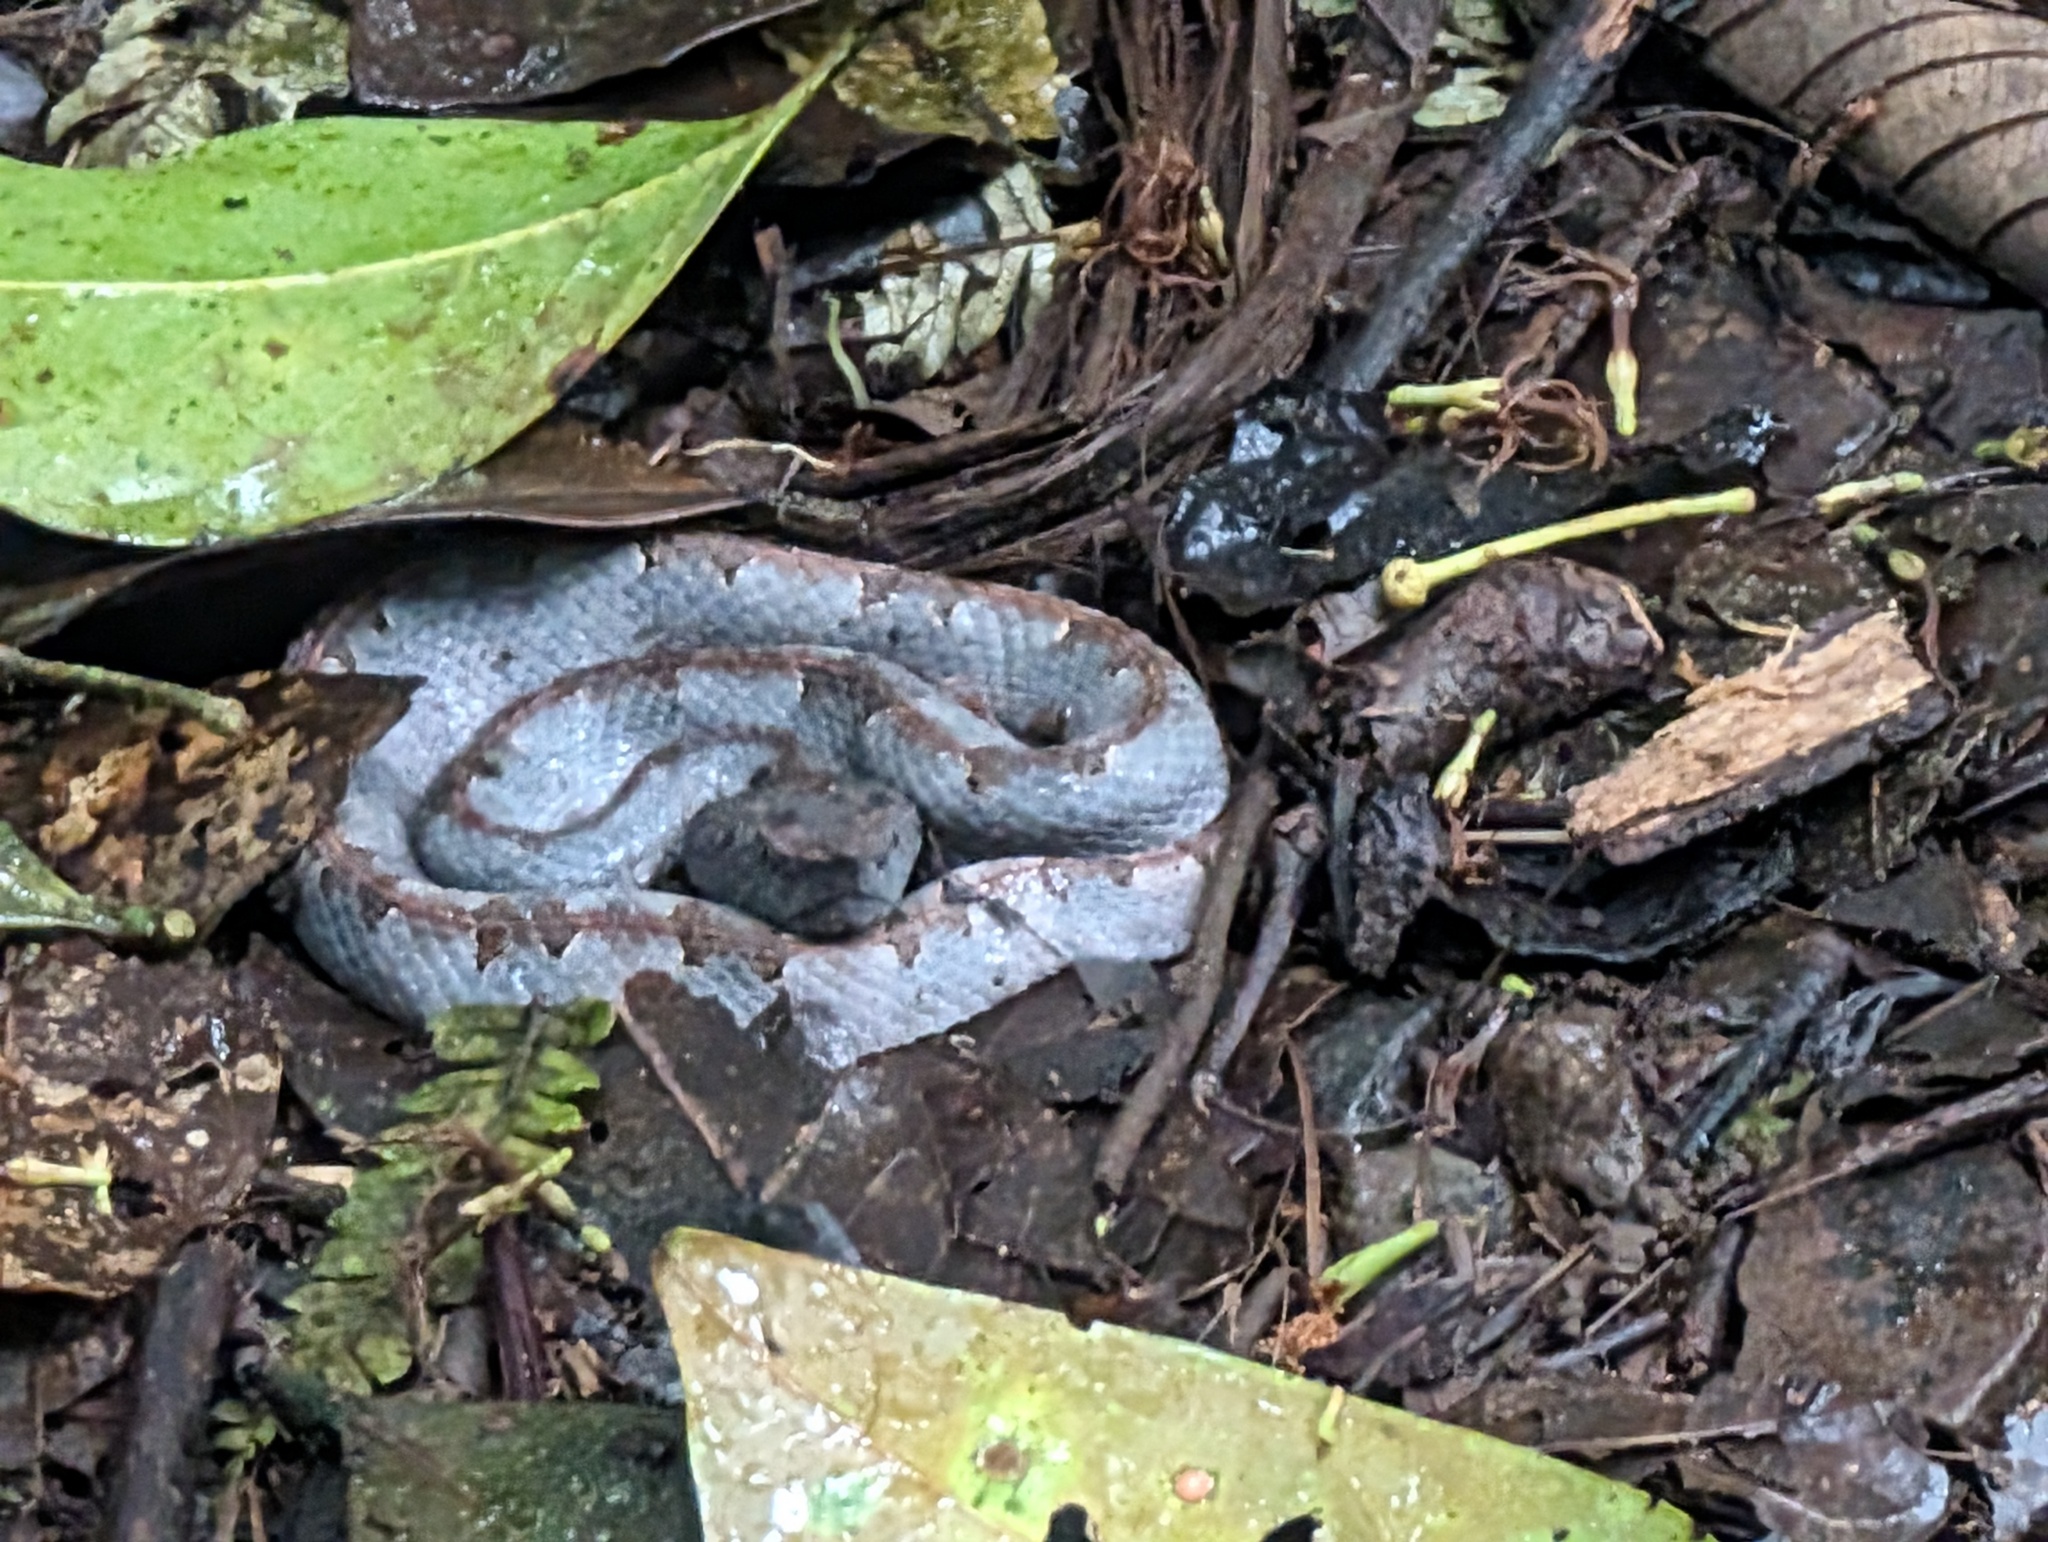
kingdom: Animalia
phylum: Chordata
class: Squamata
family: Viperidae
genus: Porthidium
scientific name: Porthidium nasutum
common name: Hognosed pit viper
